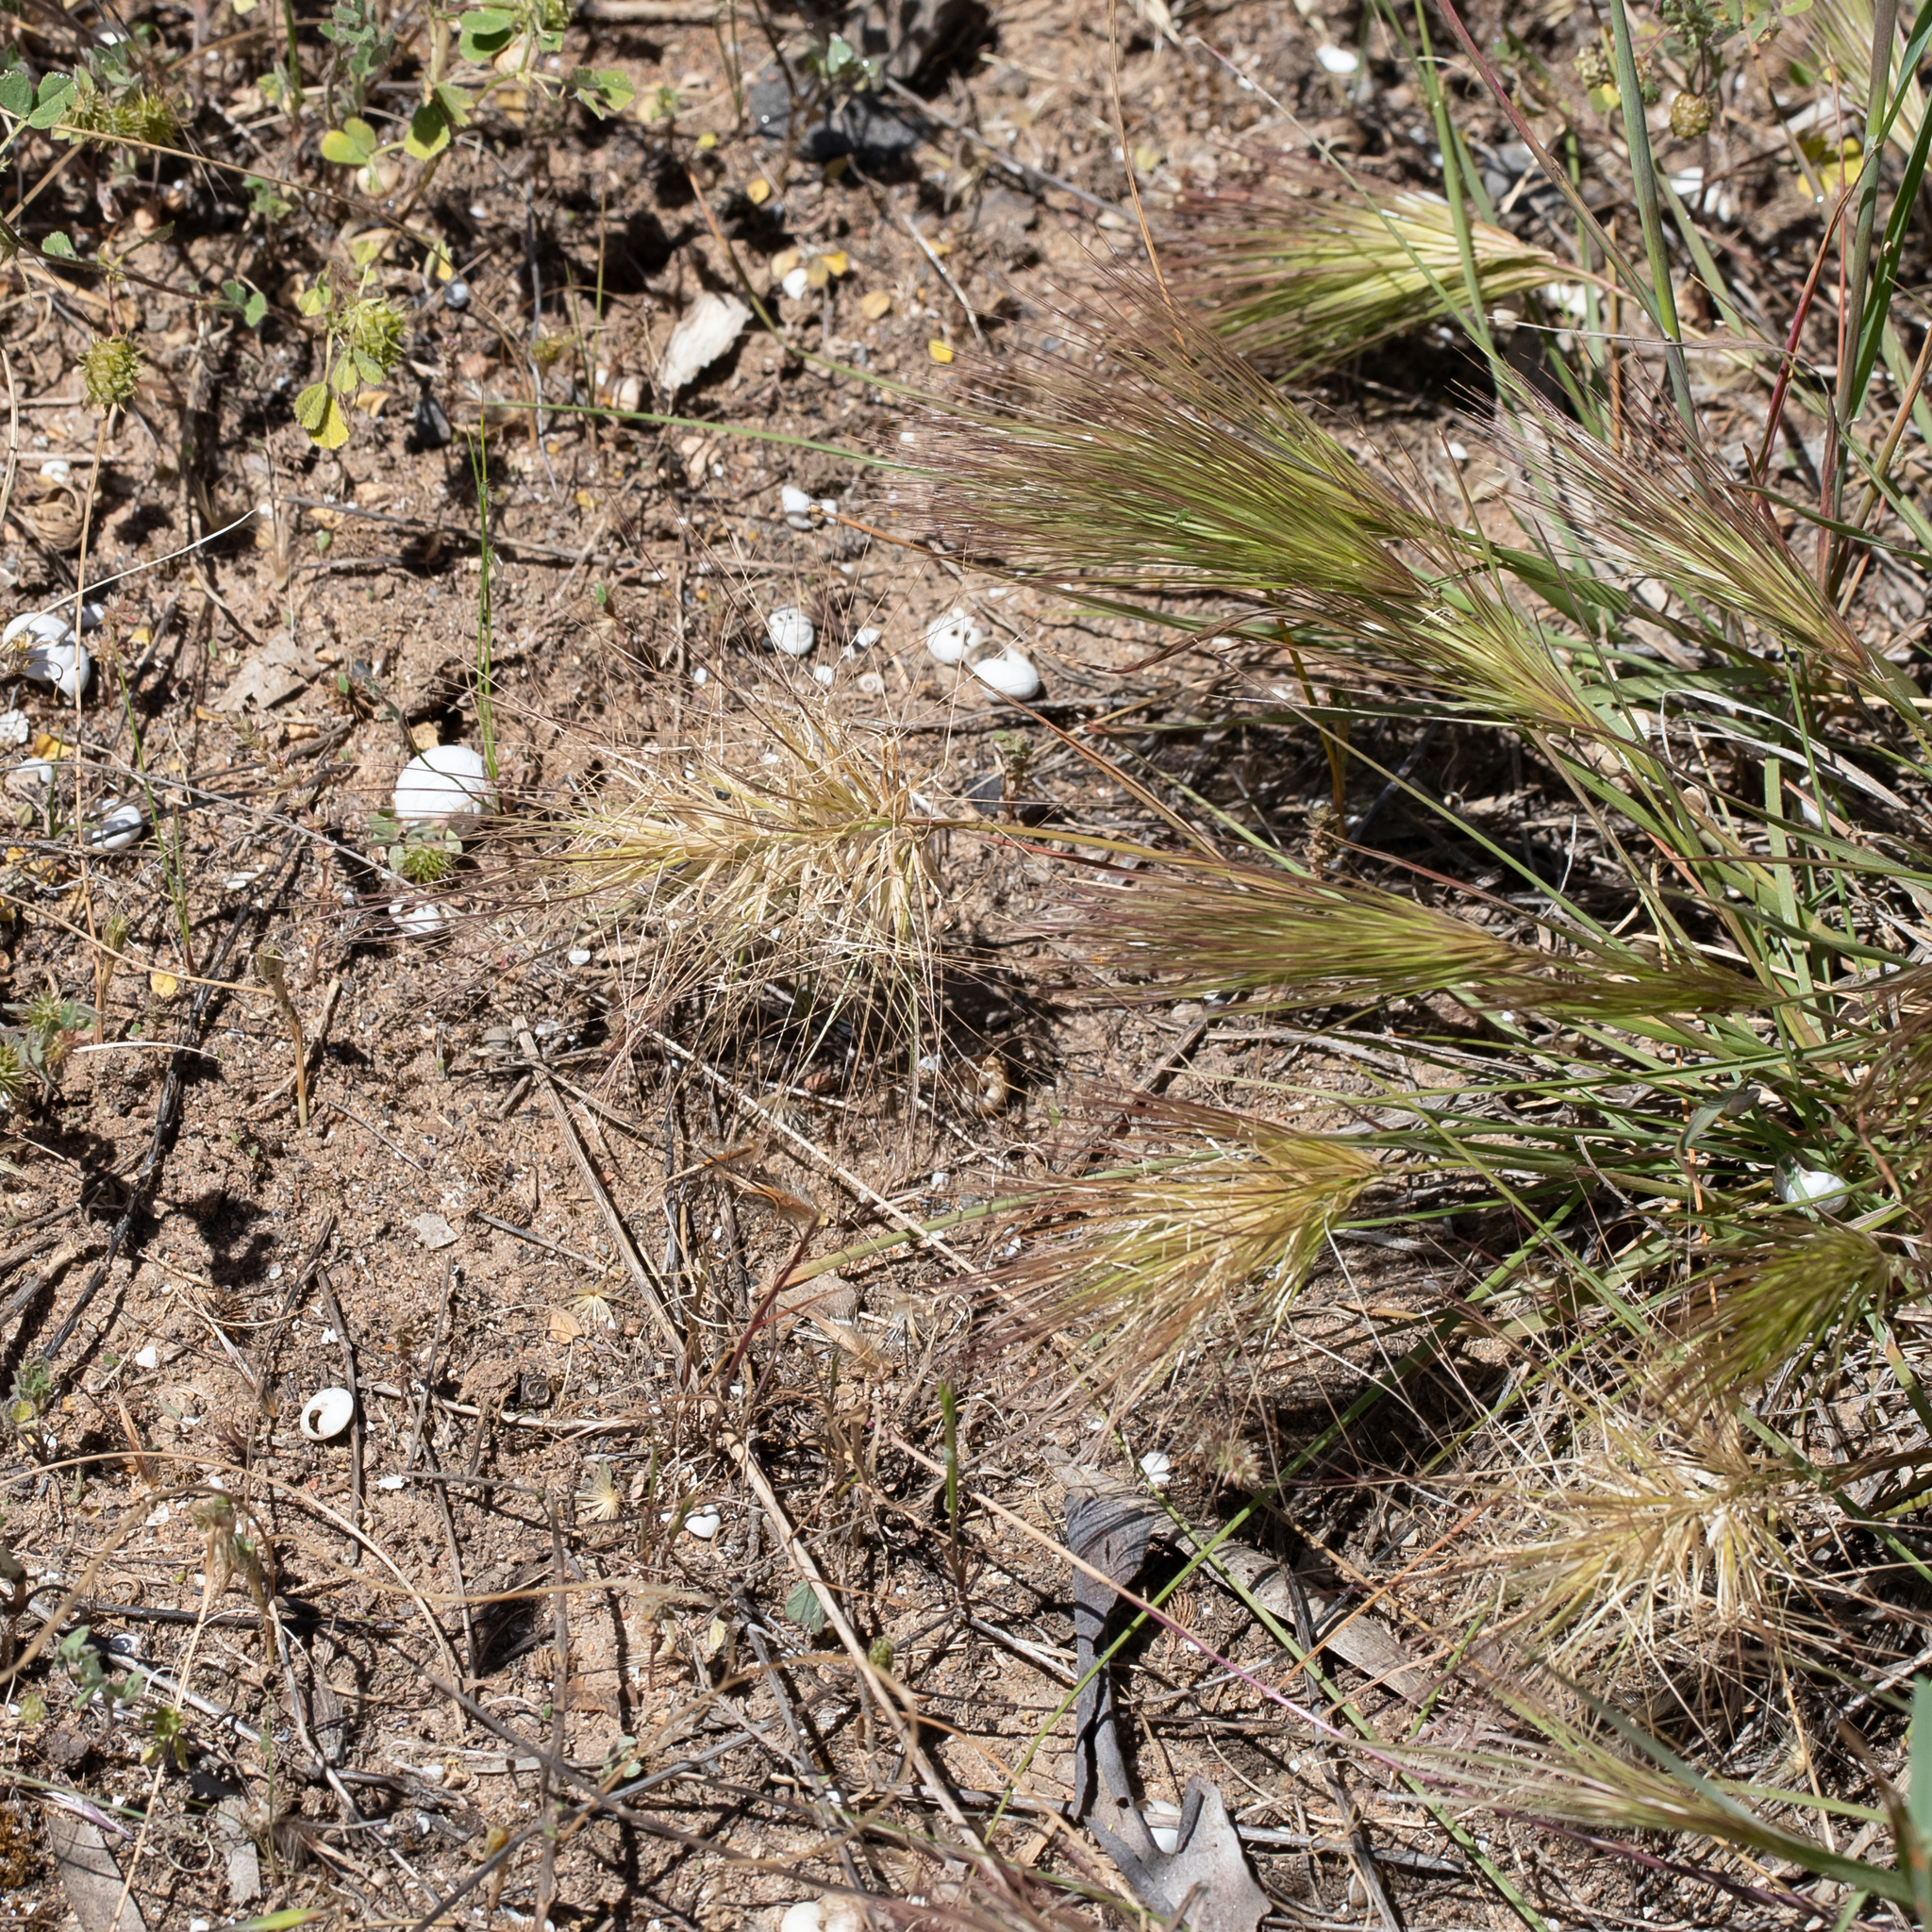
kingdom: Plantae
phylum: Tracheophyta
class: Liliopsida
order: Poales
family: Poaceae
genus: Aristida
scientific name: Aristida behriana
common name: Long-awn wire grass
